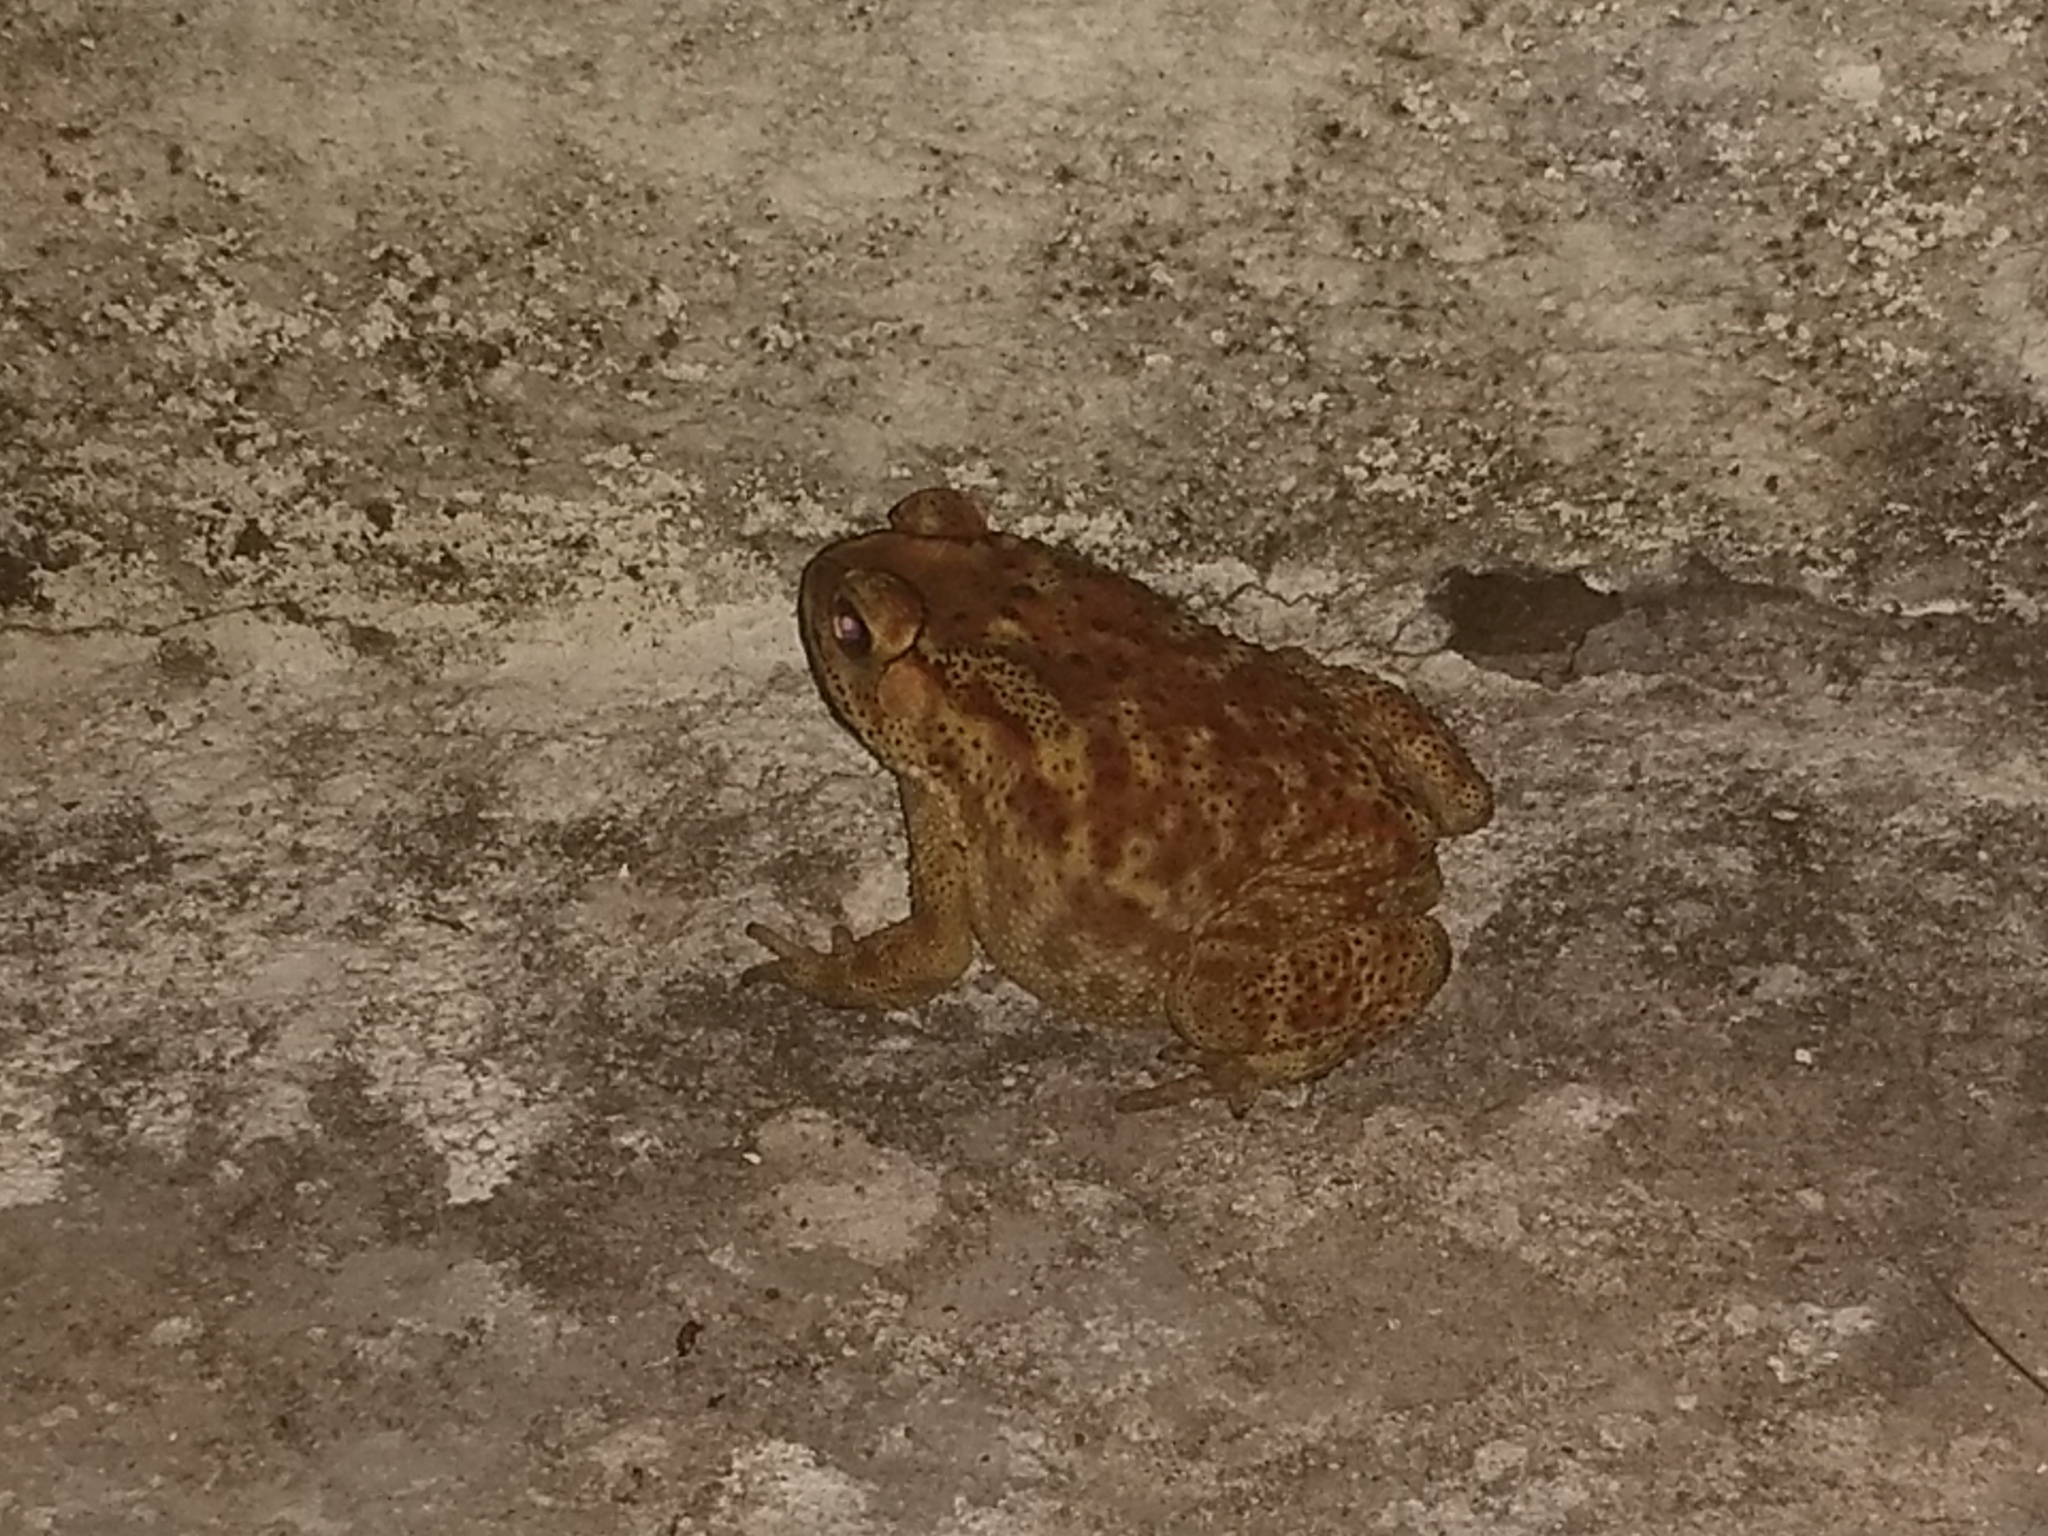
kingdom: Animalia
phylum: Chordata
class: Amphibia
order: Anura
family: Bufonidae
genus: Duttaphrynus
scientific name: Duttaphrynus melanostictus
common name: Common sunda toad
